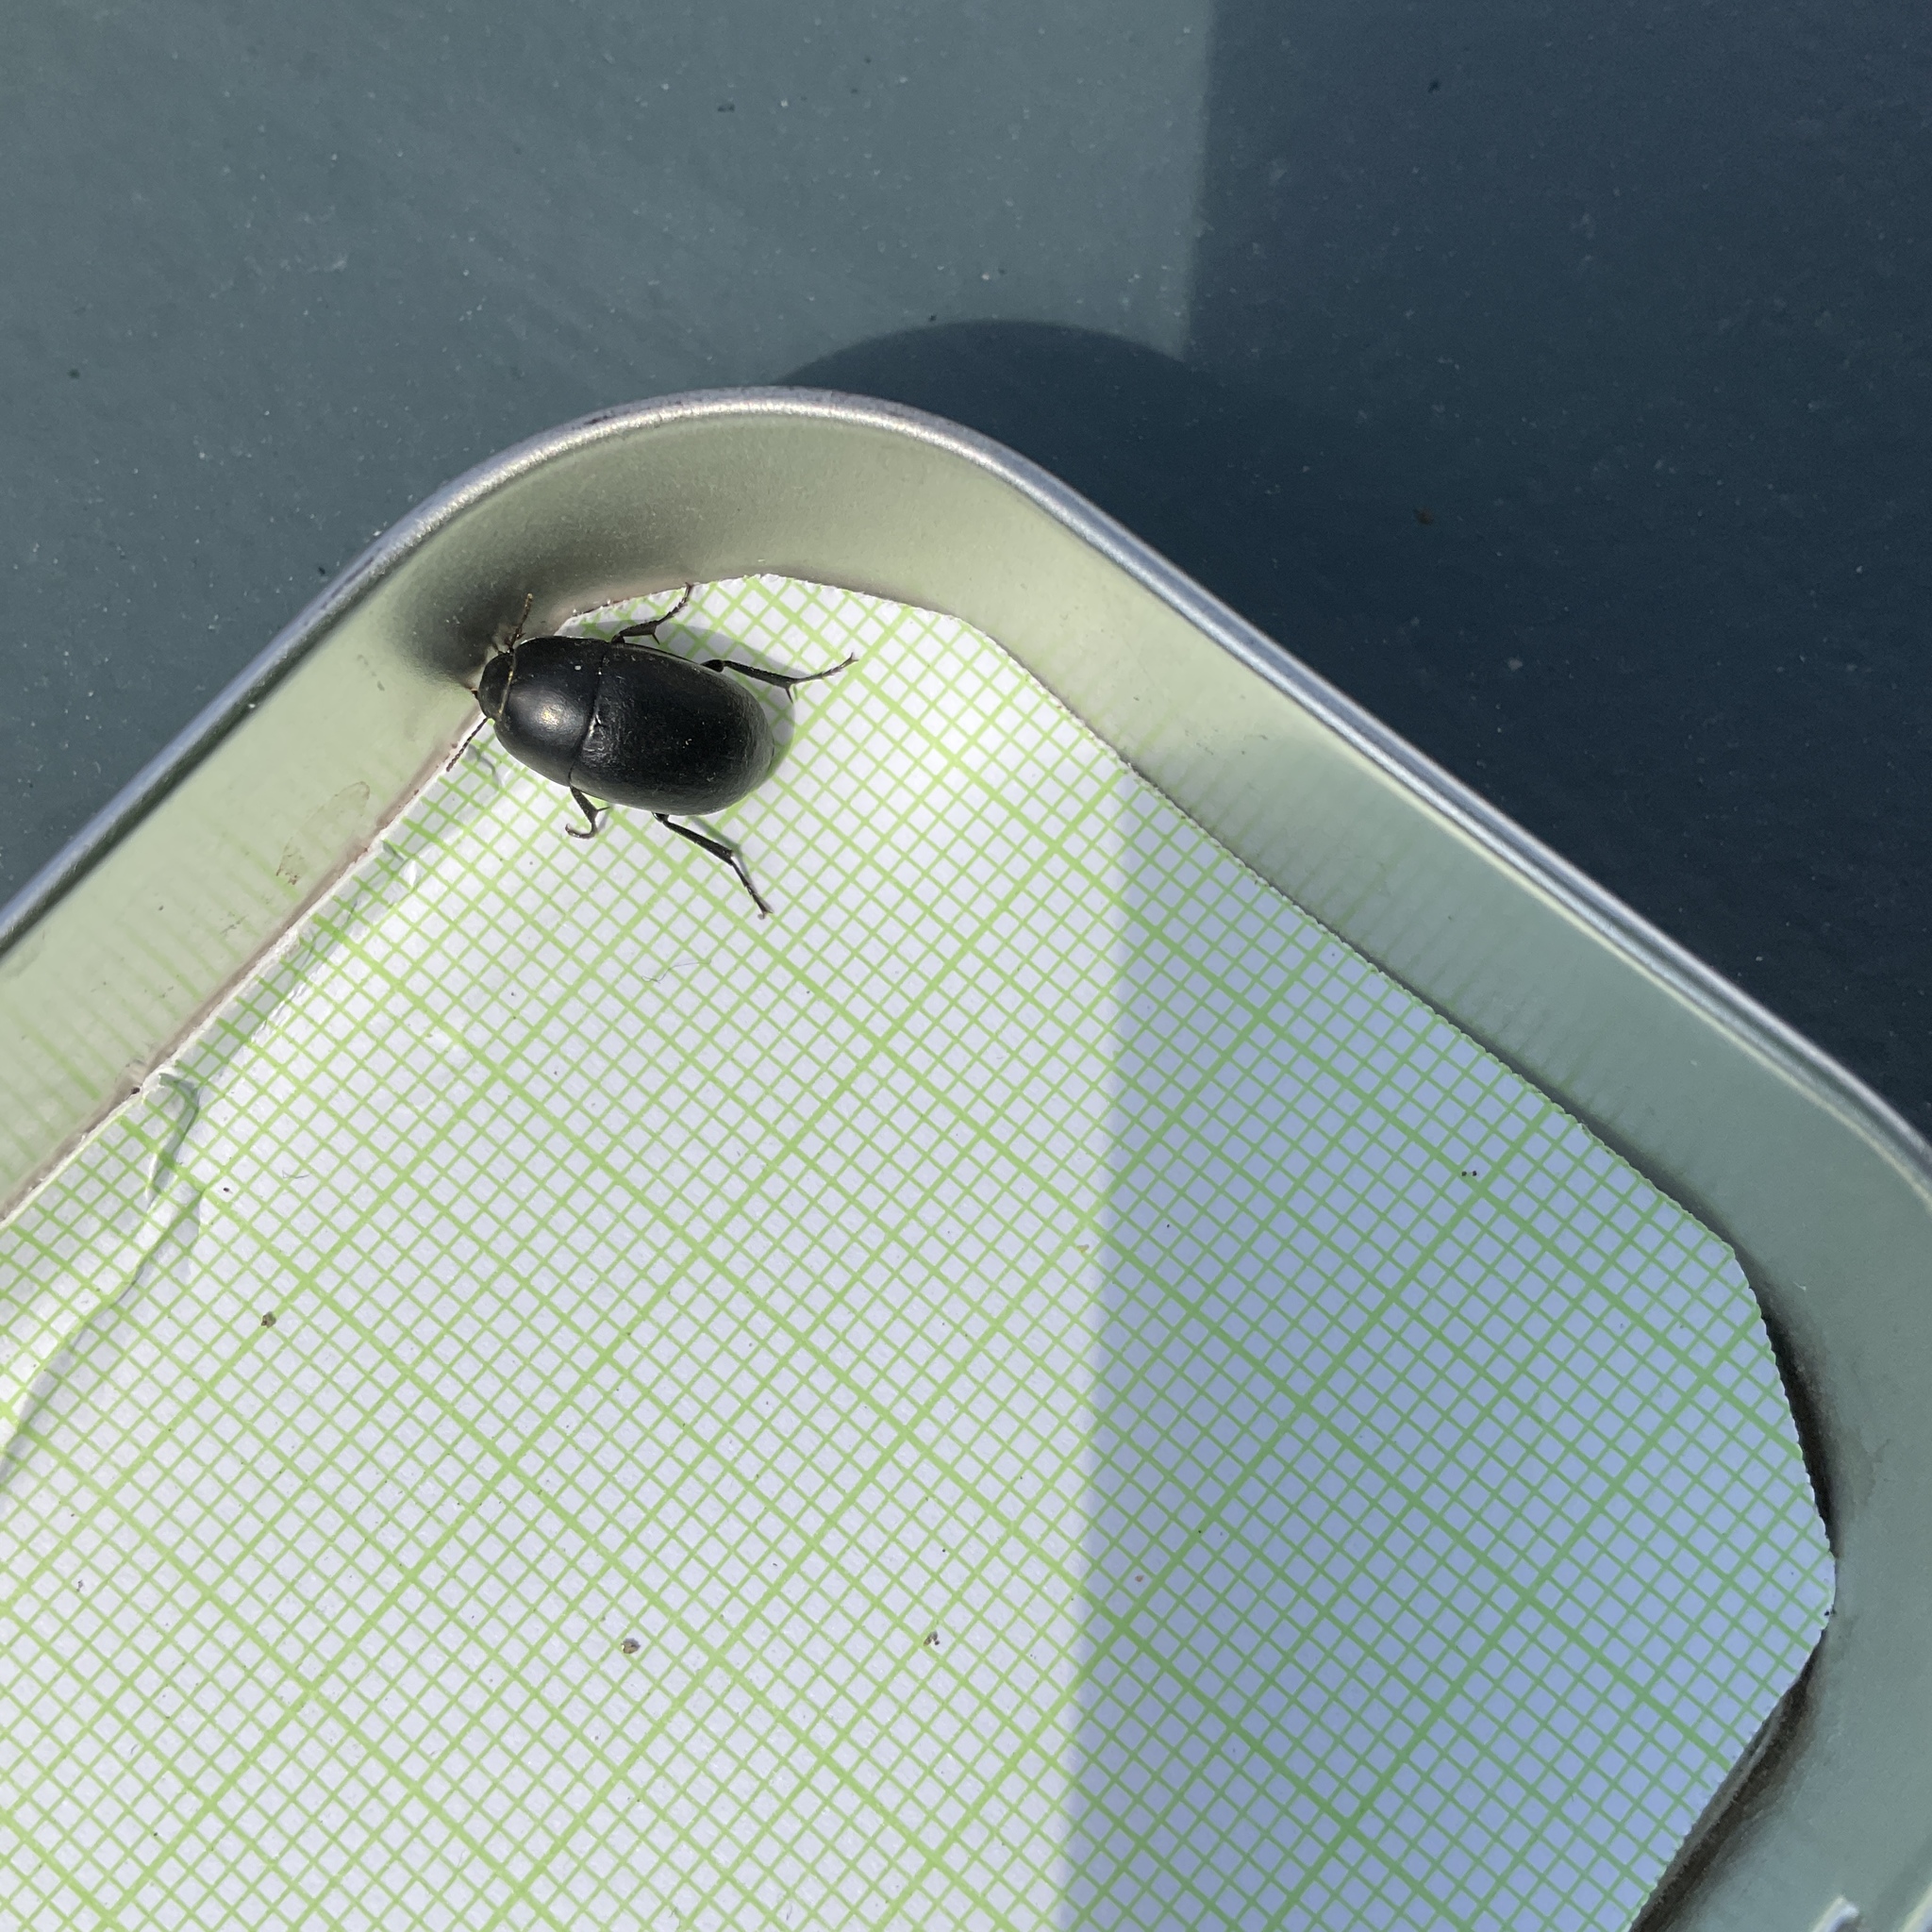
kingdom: Animalia
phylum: Arthropoda
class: Insecta
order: Coleoptera
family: Tenebrionidae
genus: Coniontis
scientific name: Coniontis
